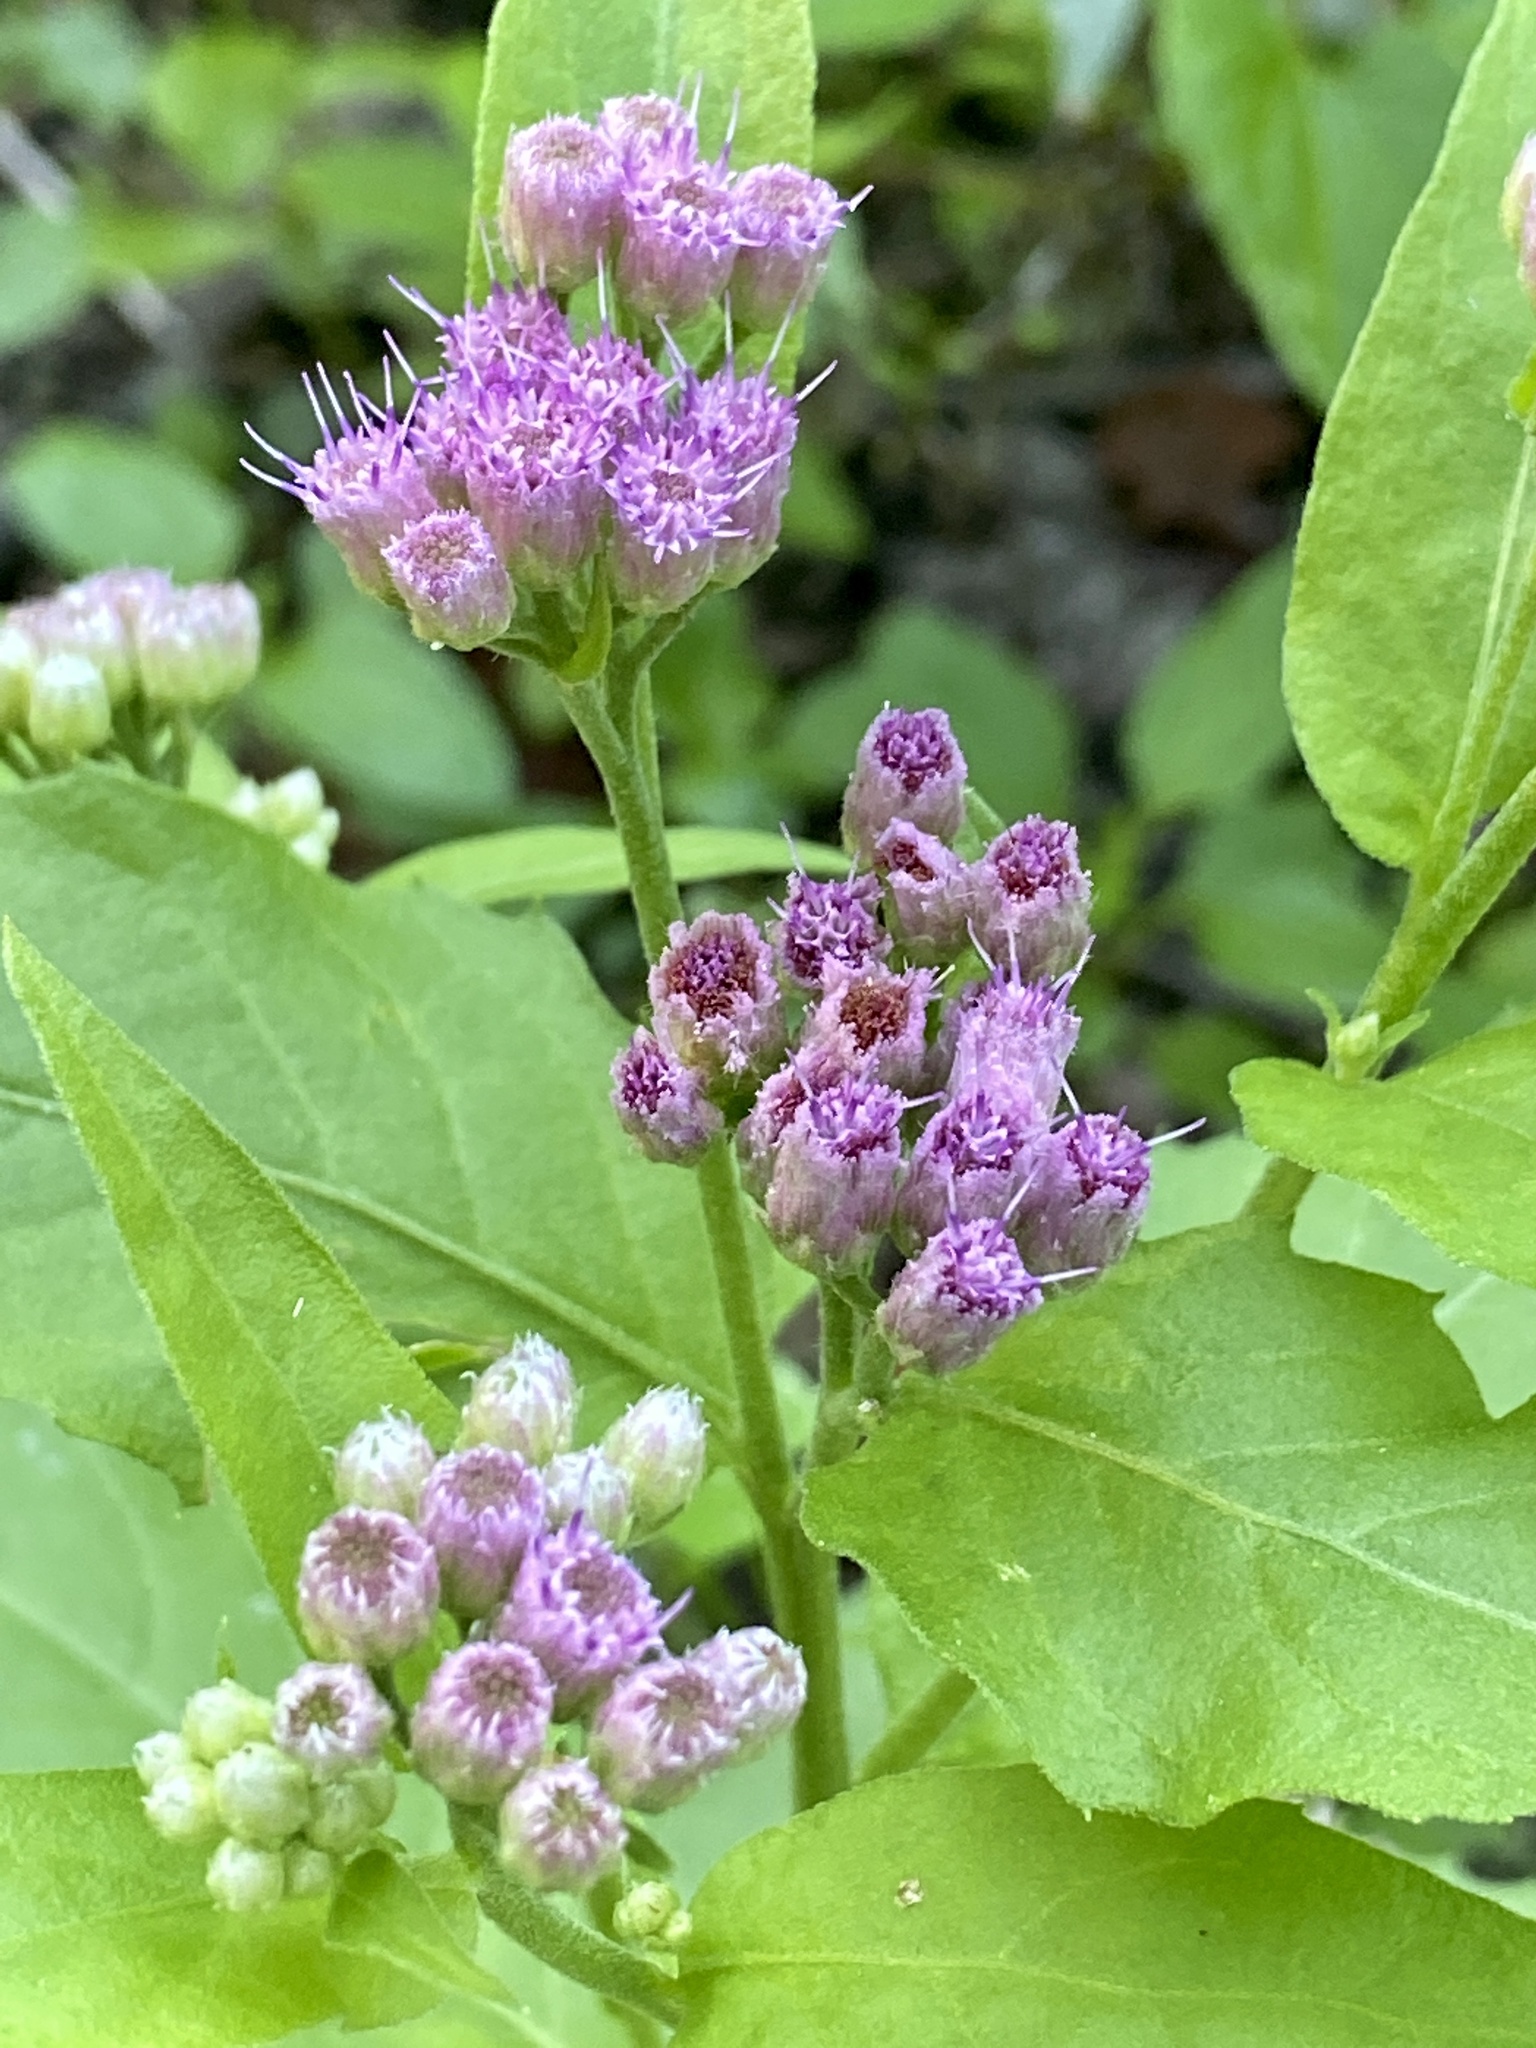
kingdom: Plantae
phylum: Tracheophyta
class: Magnoliopsida
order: Asterales
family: Asteraceae
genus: Pluchea
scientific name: Pluchea odorata
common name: Saltmarsh fleabane
